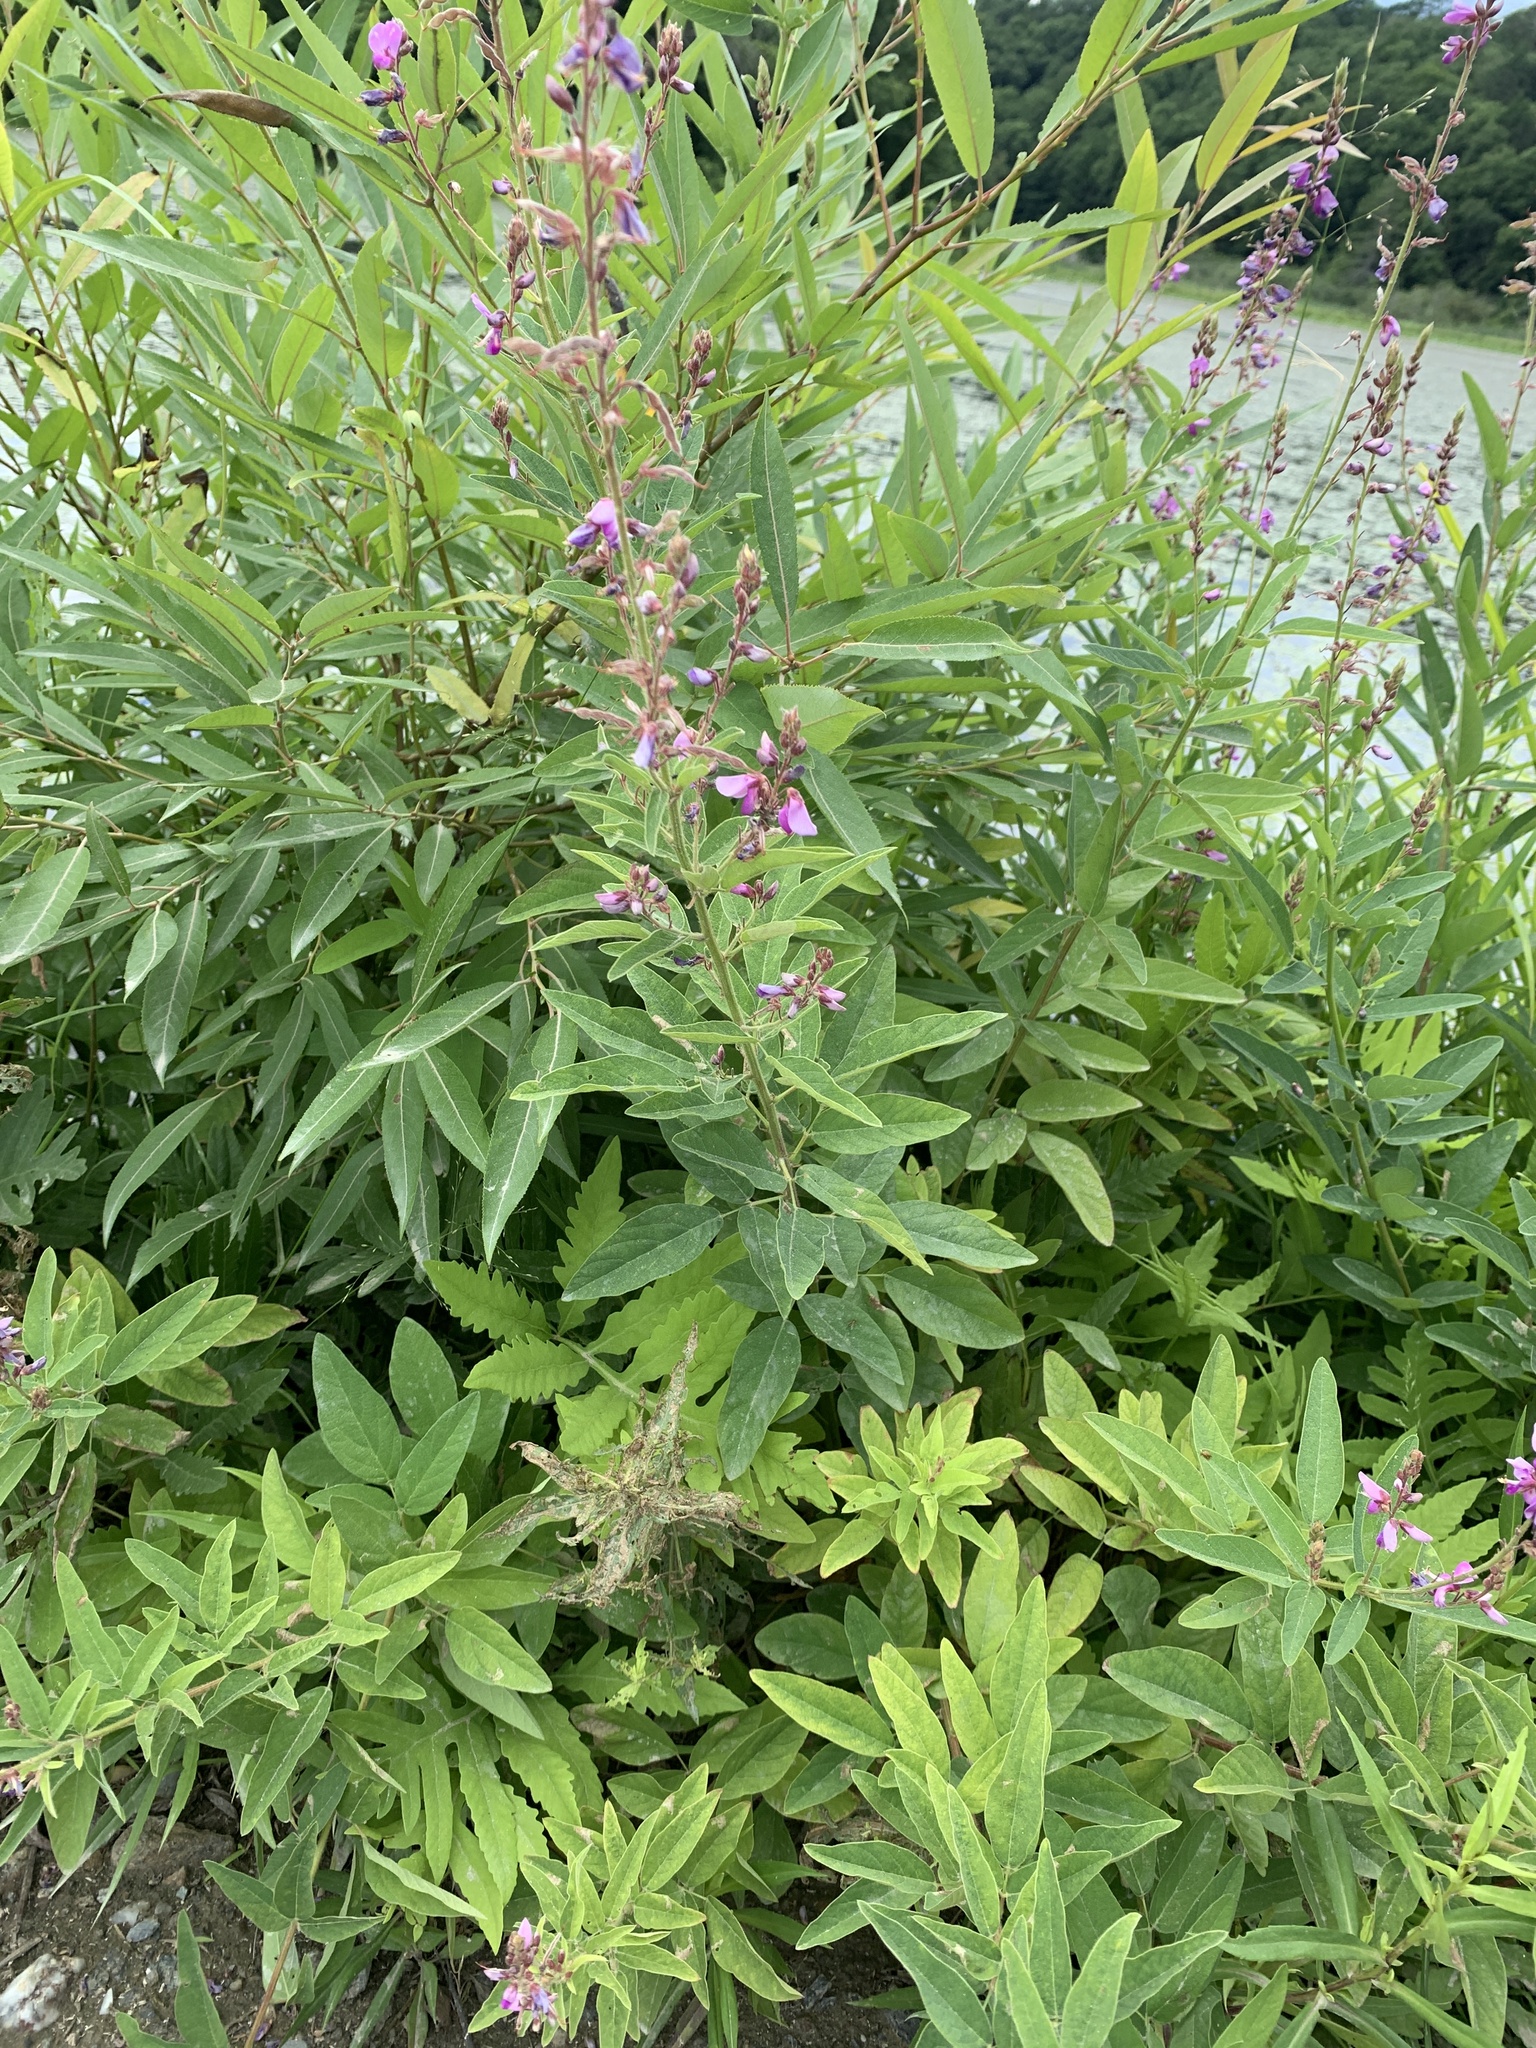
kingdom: Plantae
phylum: Tracheophyta
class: Magnoliopsida
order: Fabales
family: Fabaceae
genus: Desmodium
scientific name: Desmodium canadense
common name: Canada tick-trefoil
